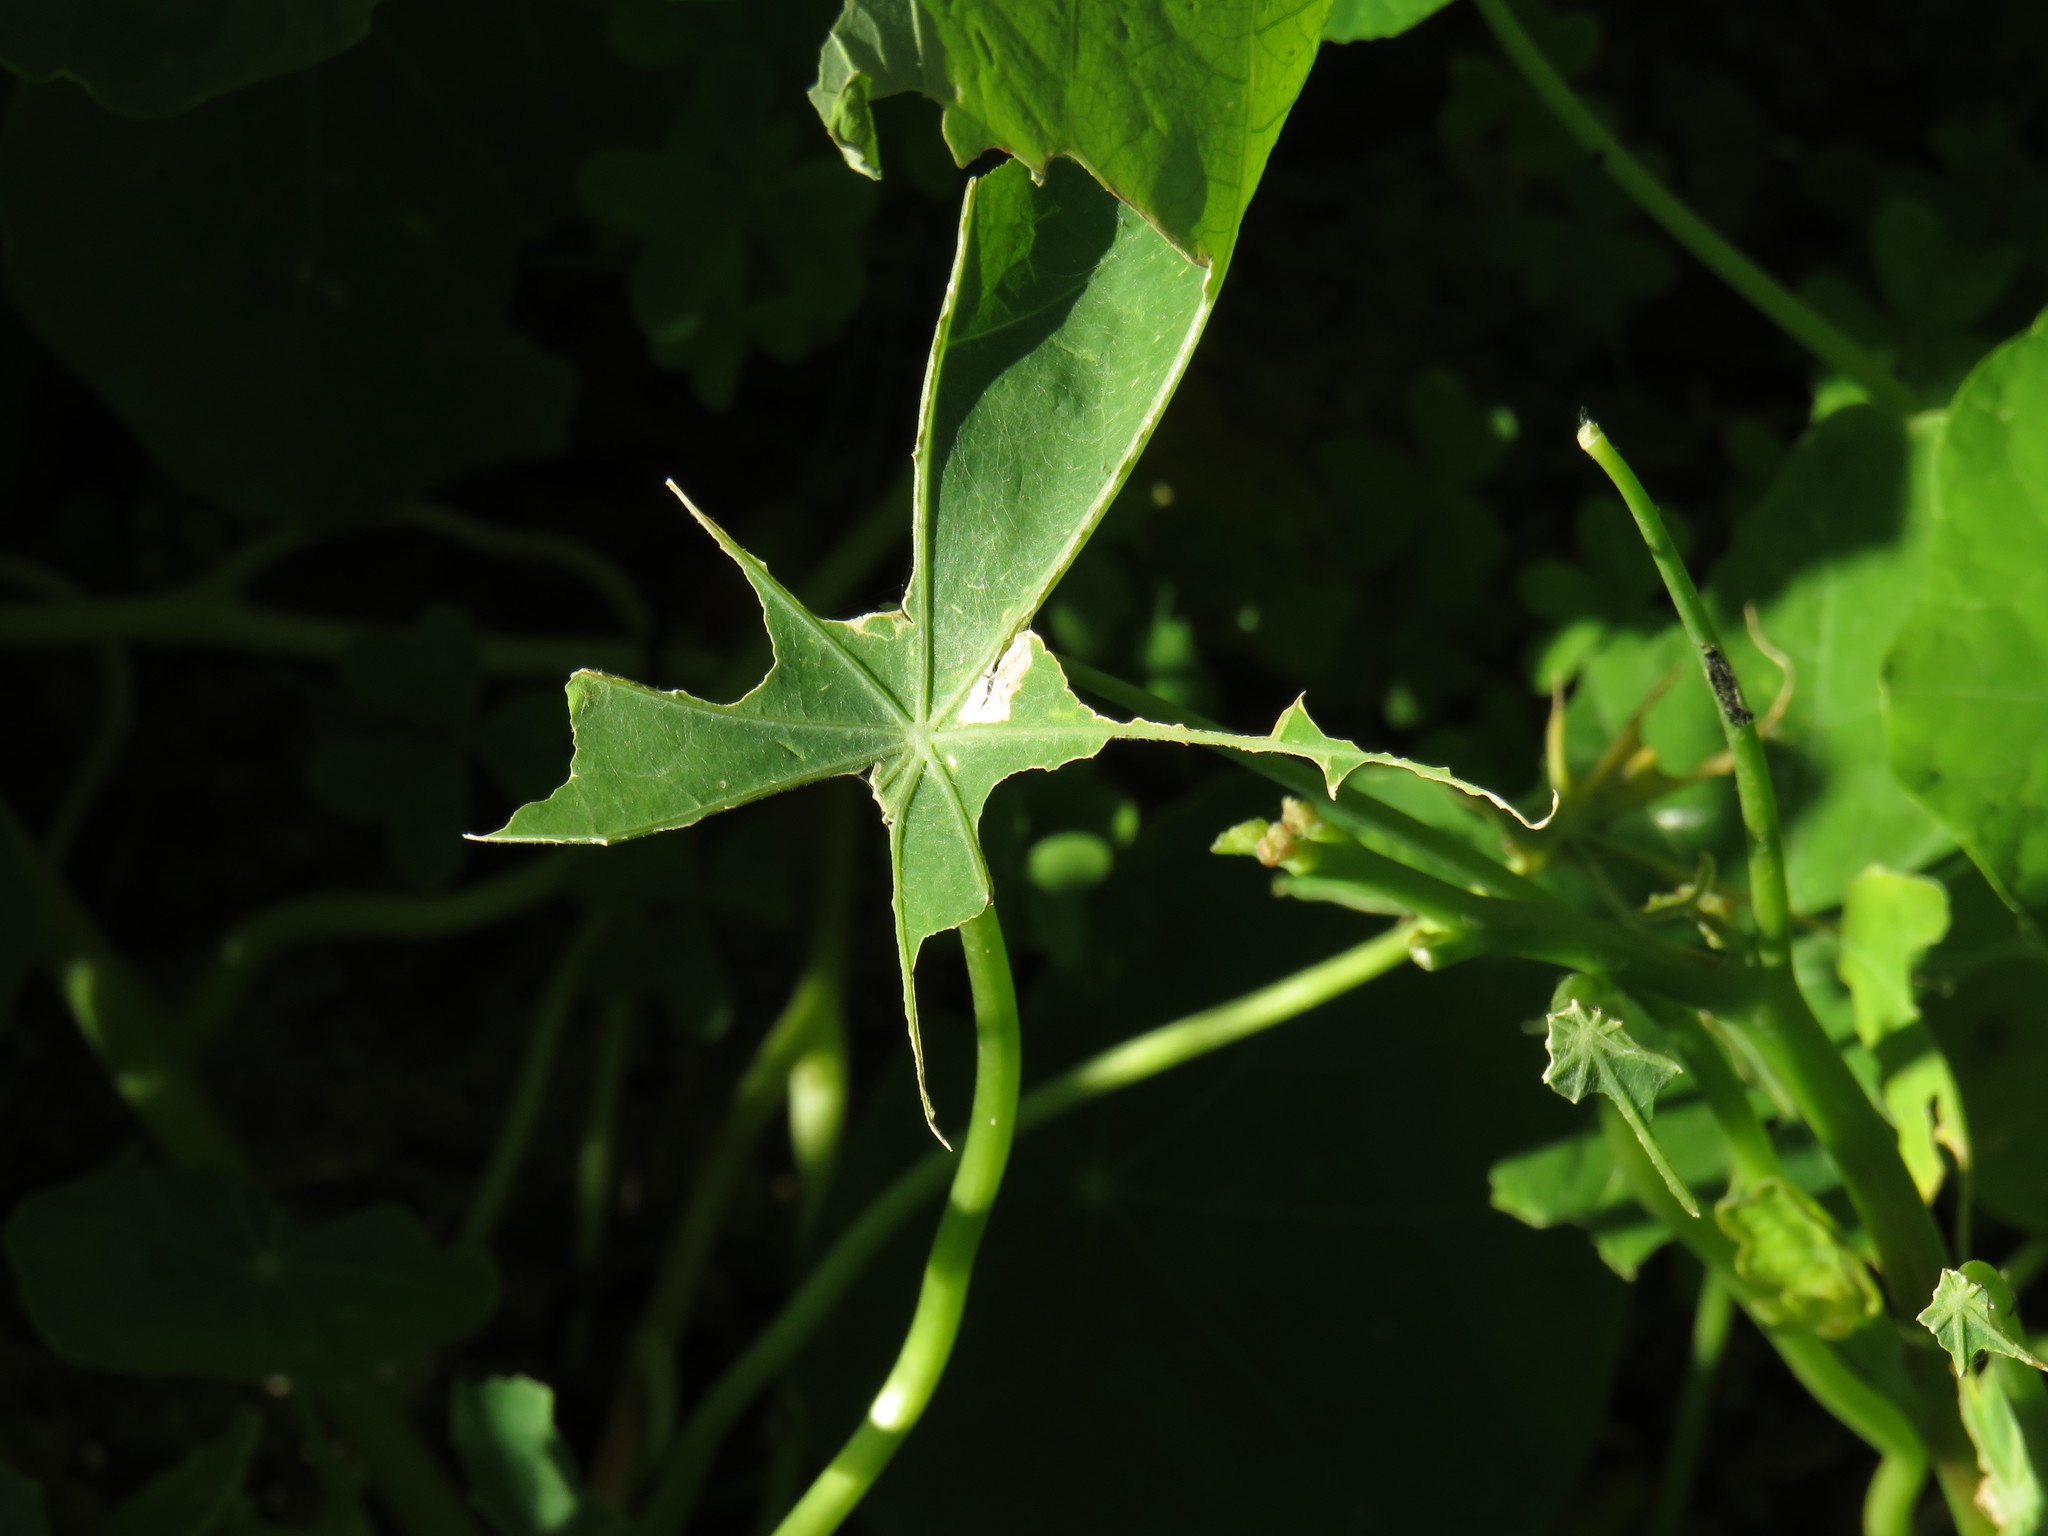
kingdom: Animalia
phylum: Arthropoda
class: Insecta
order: Lepidoptera
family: Pieridae
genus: Pieris
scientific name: Pieris brassicae
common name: Large white
